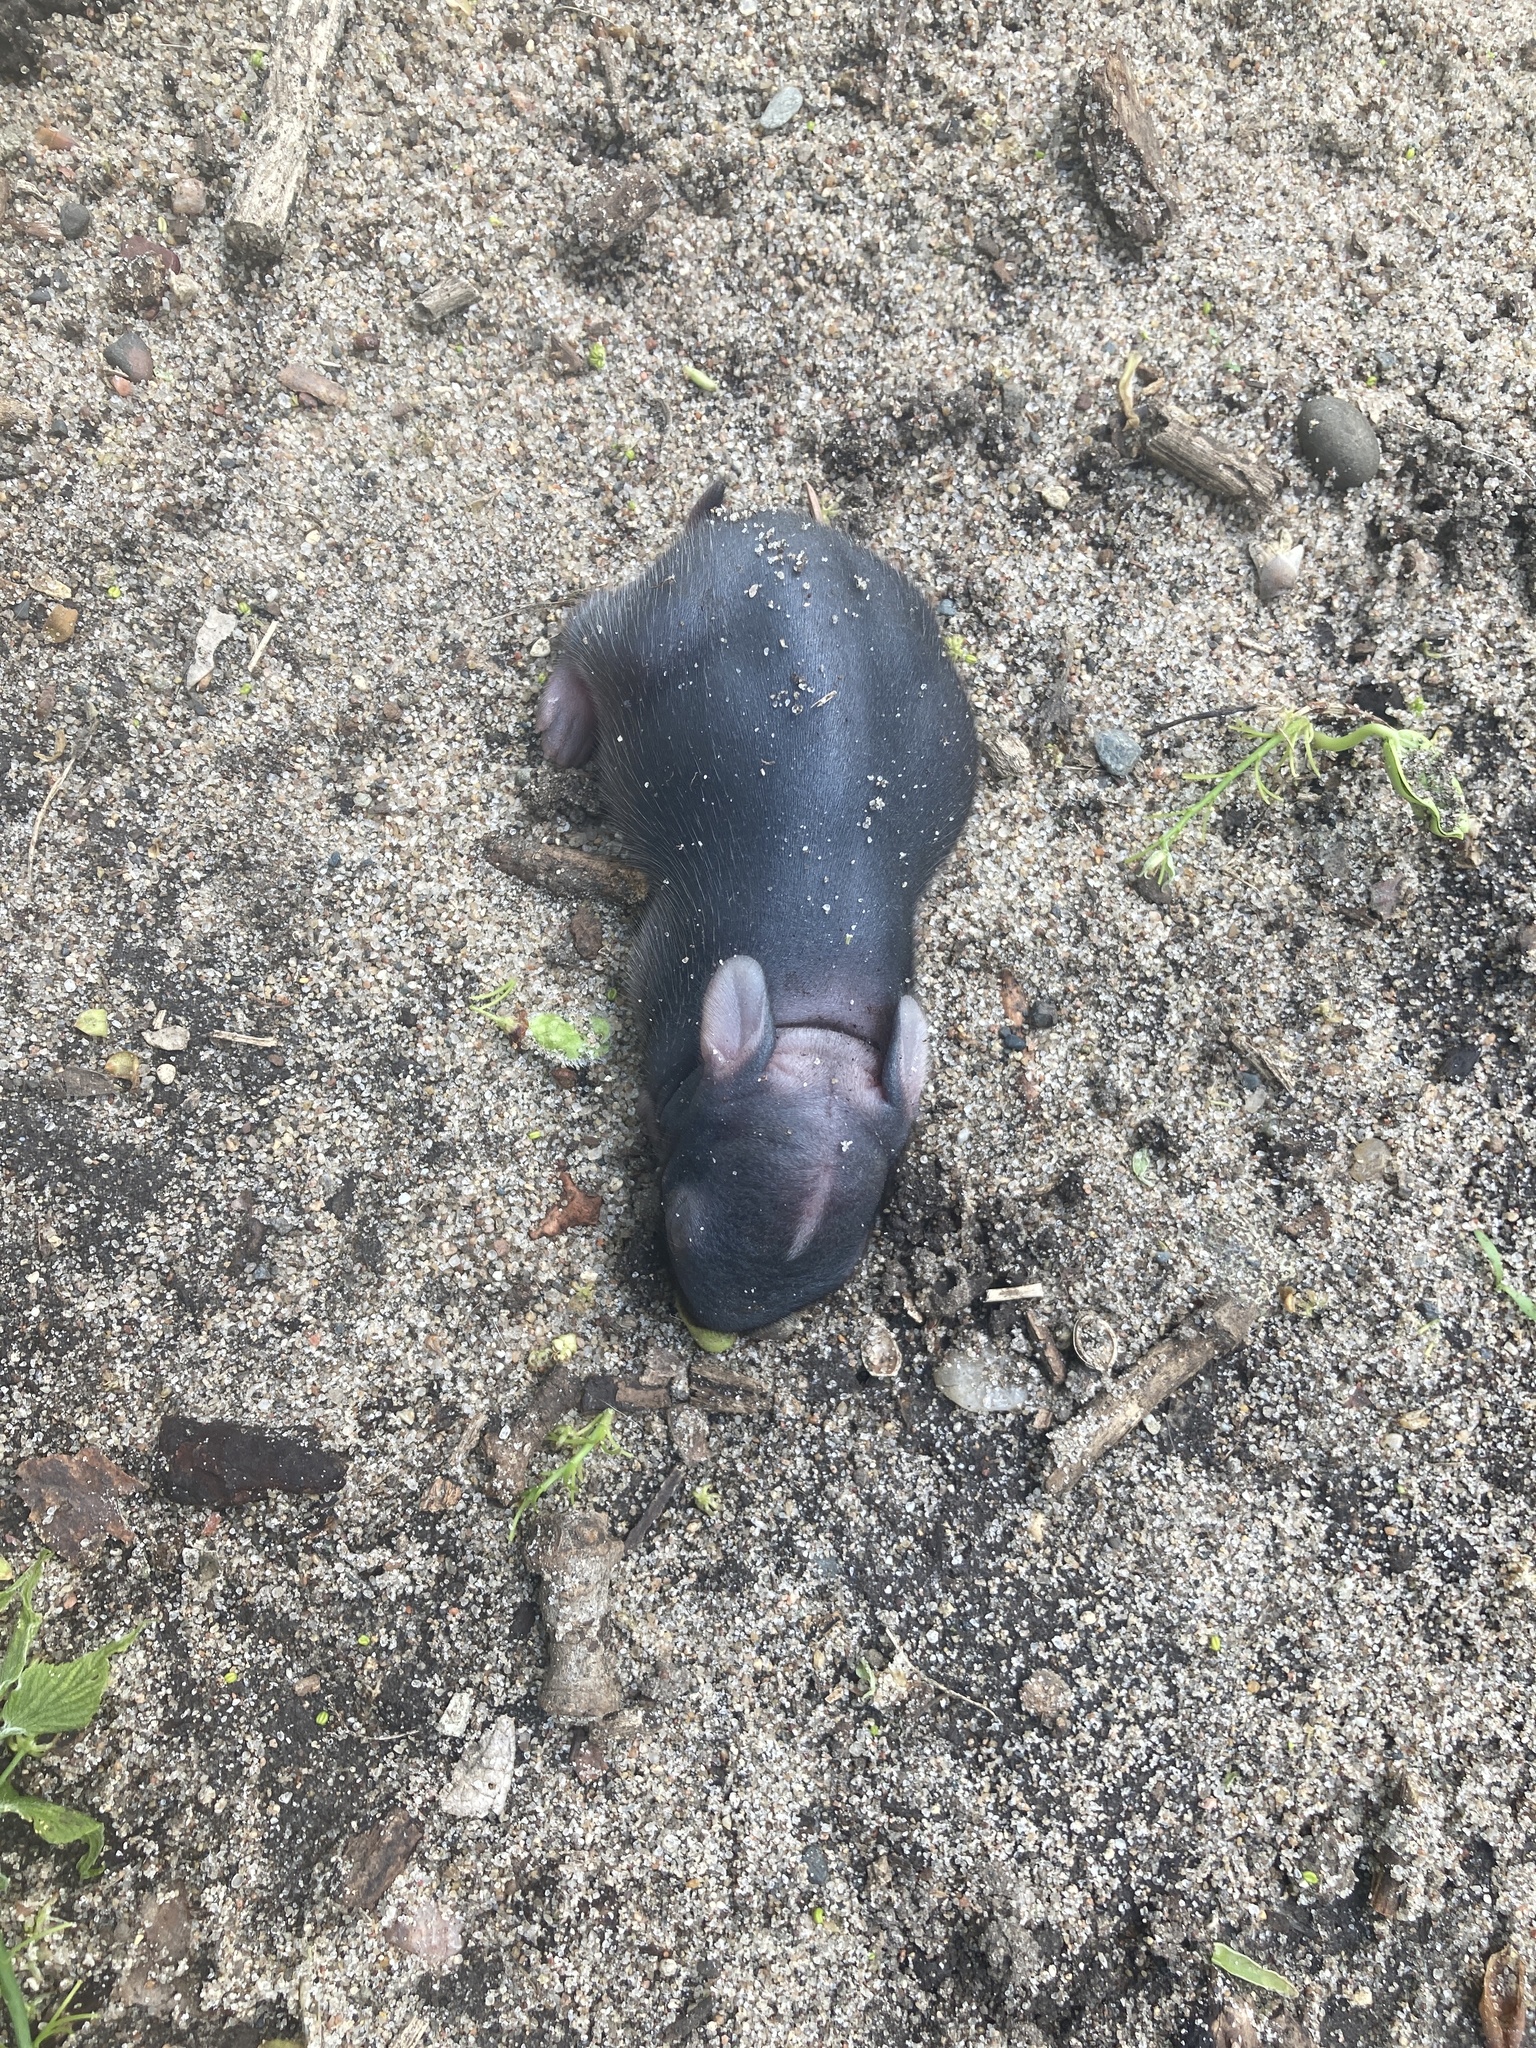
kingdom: Animalia
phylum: Chordata
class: Mammalia
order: Lagomorpha
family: Leporidae
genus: Sylvilagus
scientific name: Sylvilagus floridanus
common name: Eastern cottontail
